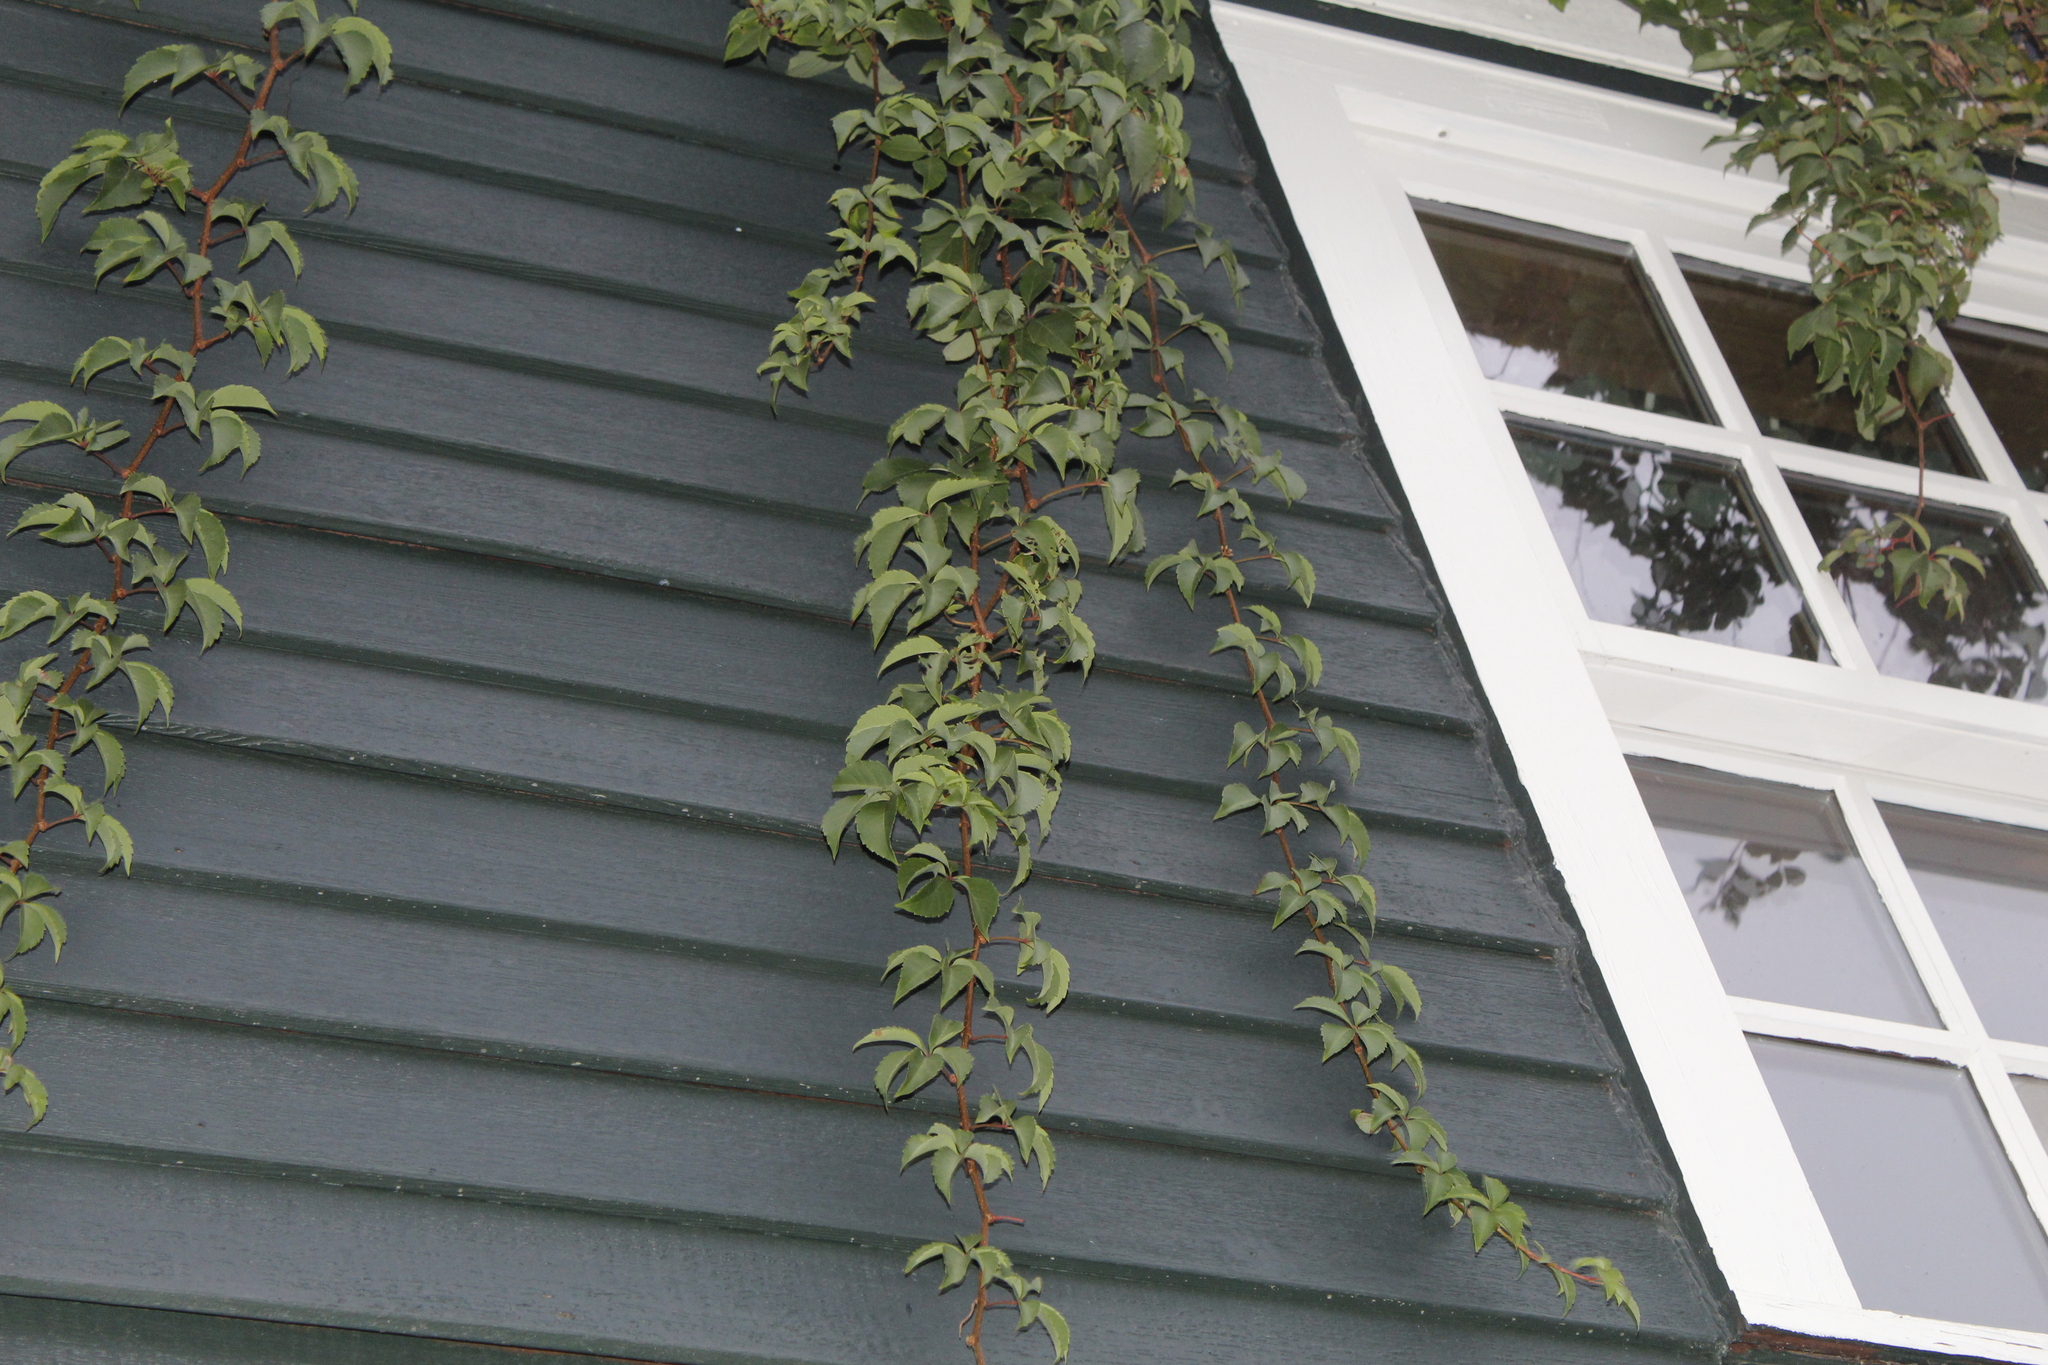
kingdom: Plantae
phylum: Tracheophyta
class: Magnoliopsida
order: Vitales
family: Vitaceae
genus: Parthenocissus
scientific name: Parthenocissus quinquefolia
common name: Virginia-creeper
